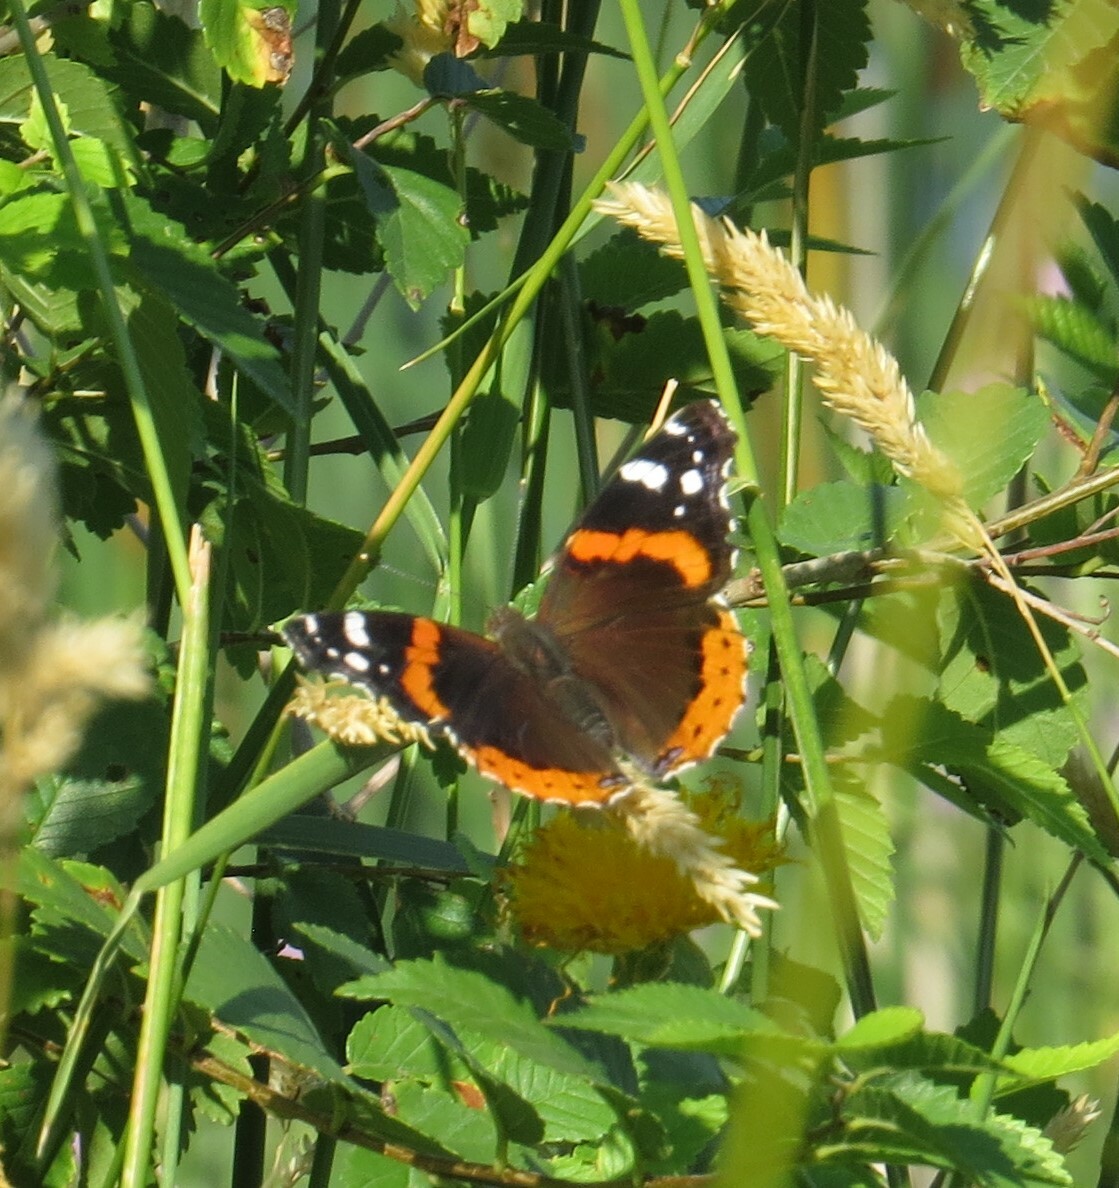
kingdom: Animalia
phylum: Arthropoda
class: Insecta
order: Lepidoptera
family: Nymphalidae
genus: Vanessa
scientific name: Vanessa atalanta
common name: Red admiral
